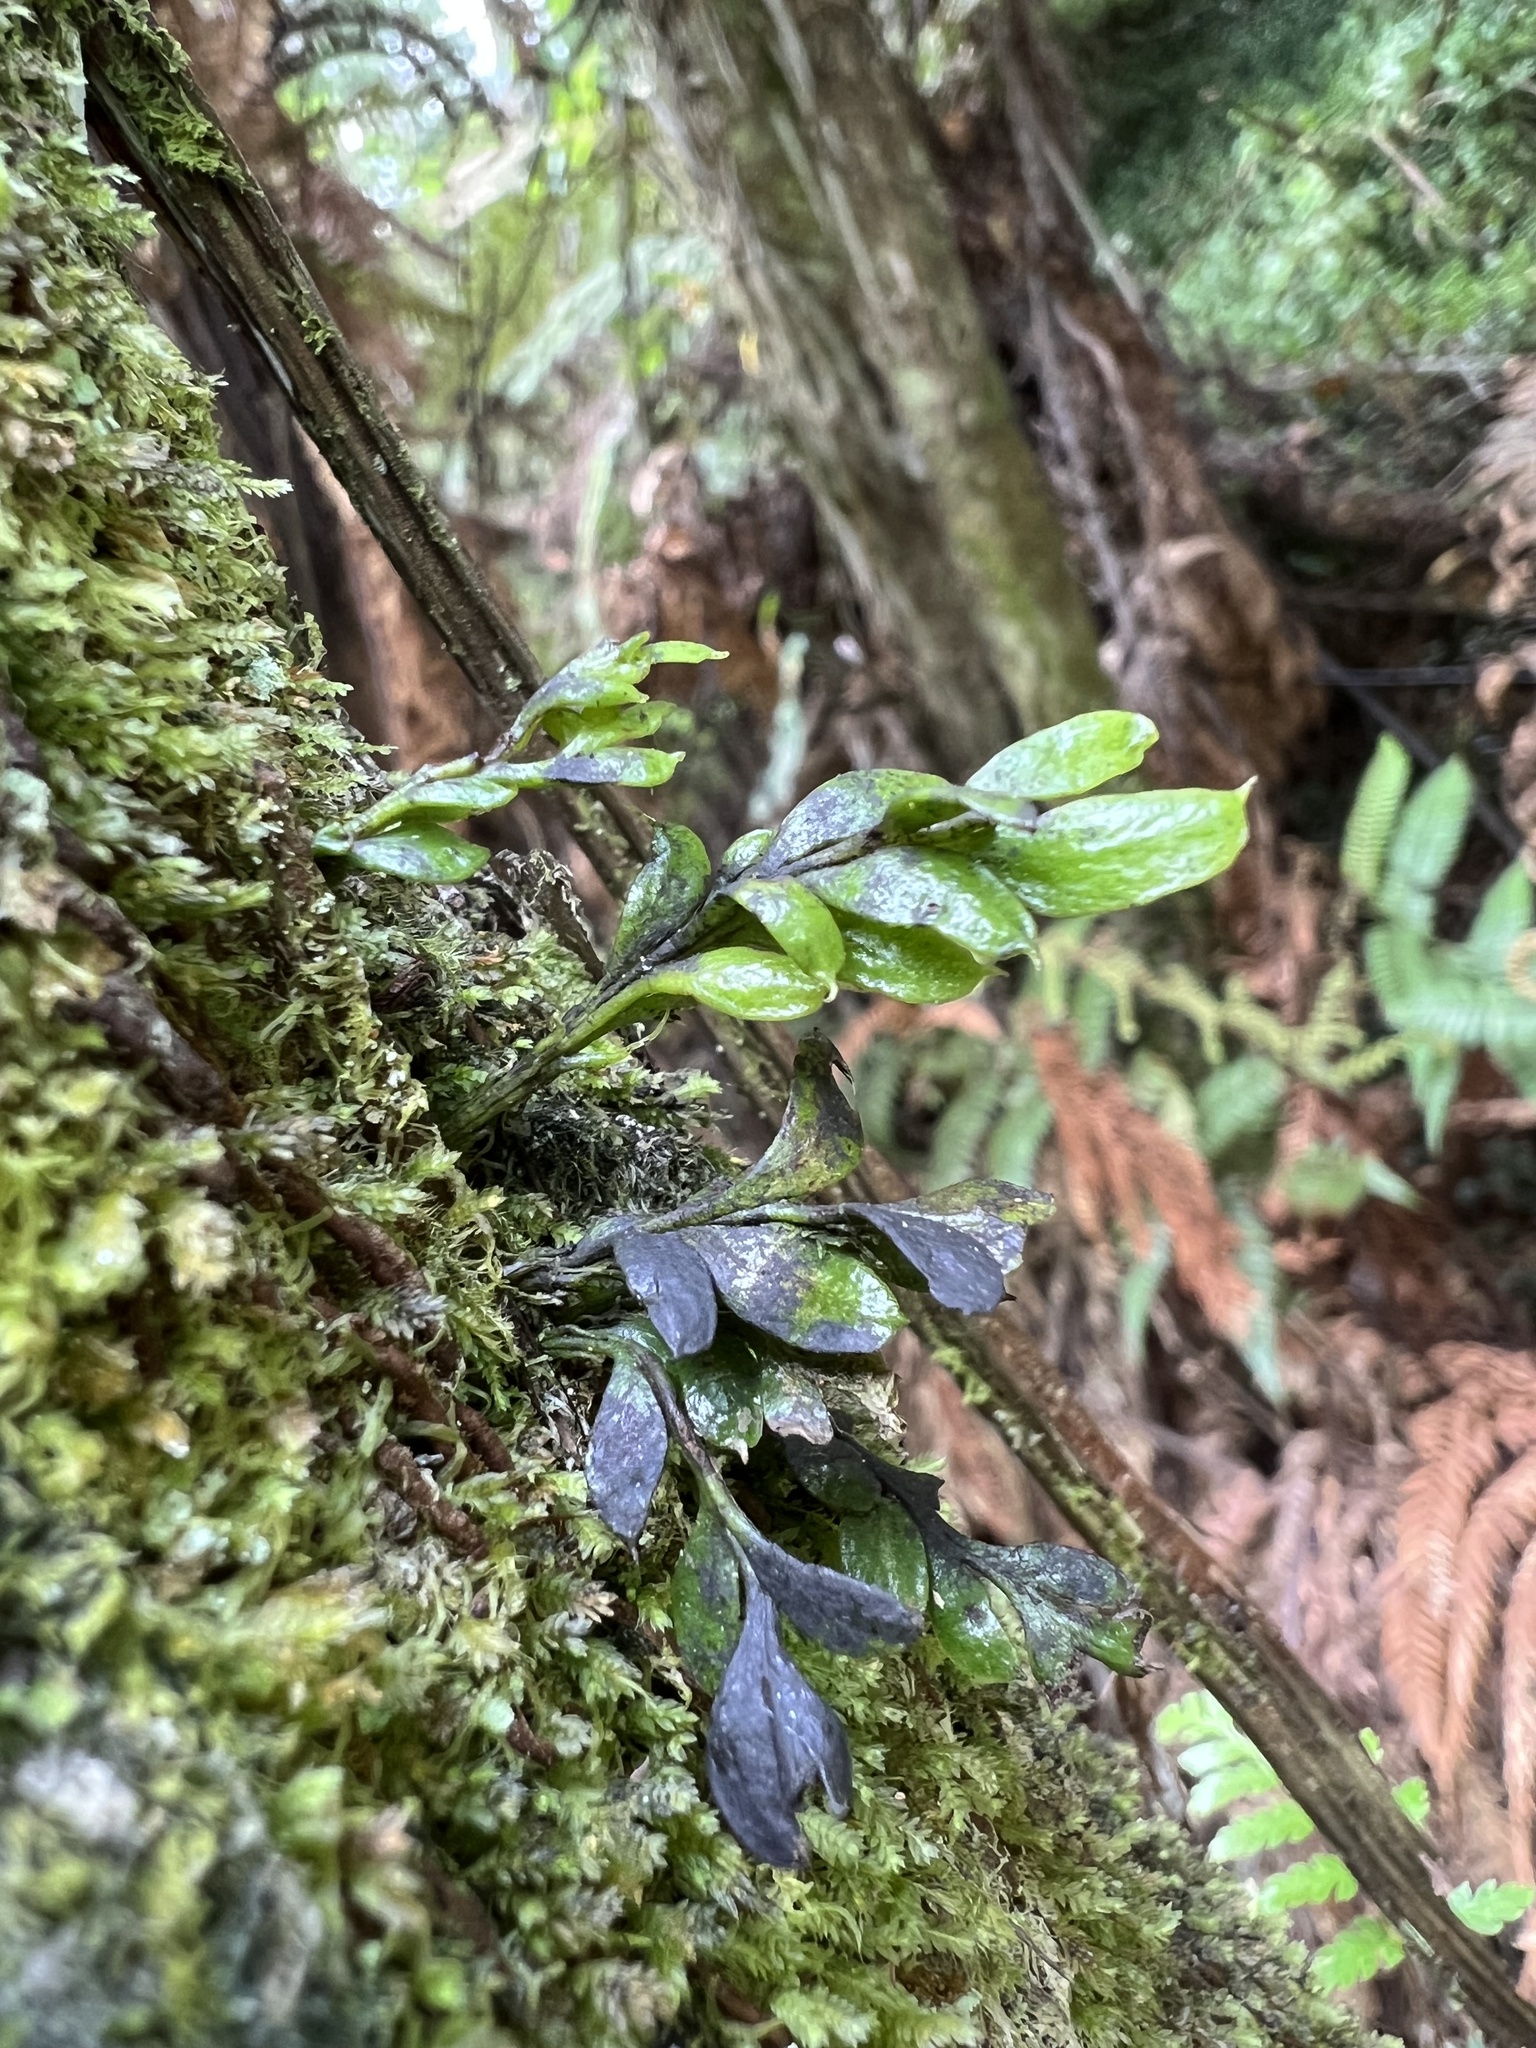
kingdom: Plantae
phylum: Tracheophyta
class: Polypodiopsida
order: Psilotales
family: Psilotaceae
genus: Tmesipteris
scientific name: Tmesipteris lanceolata
